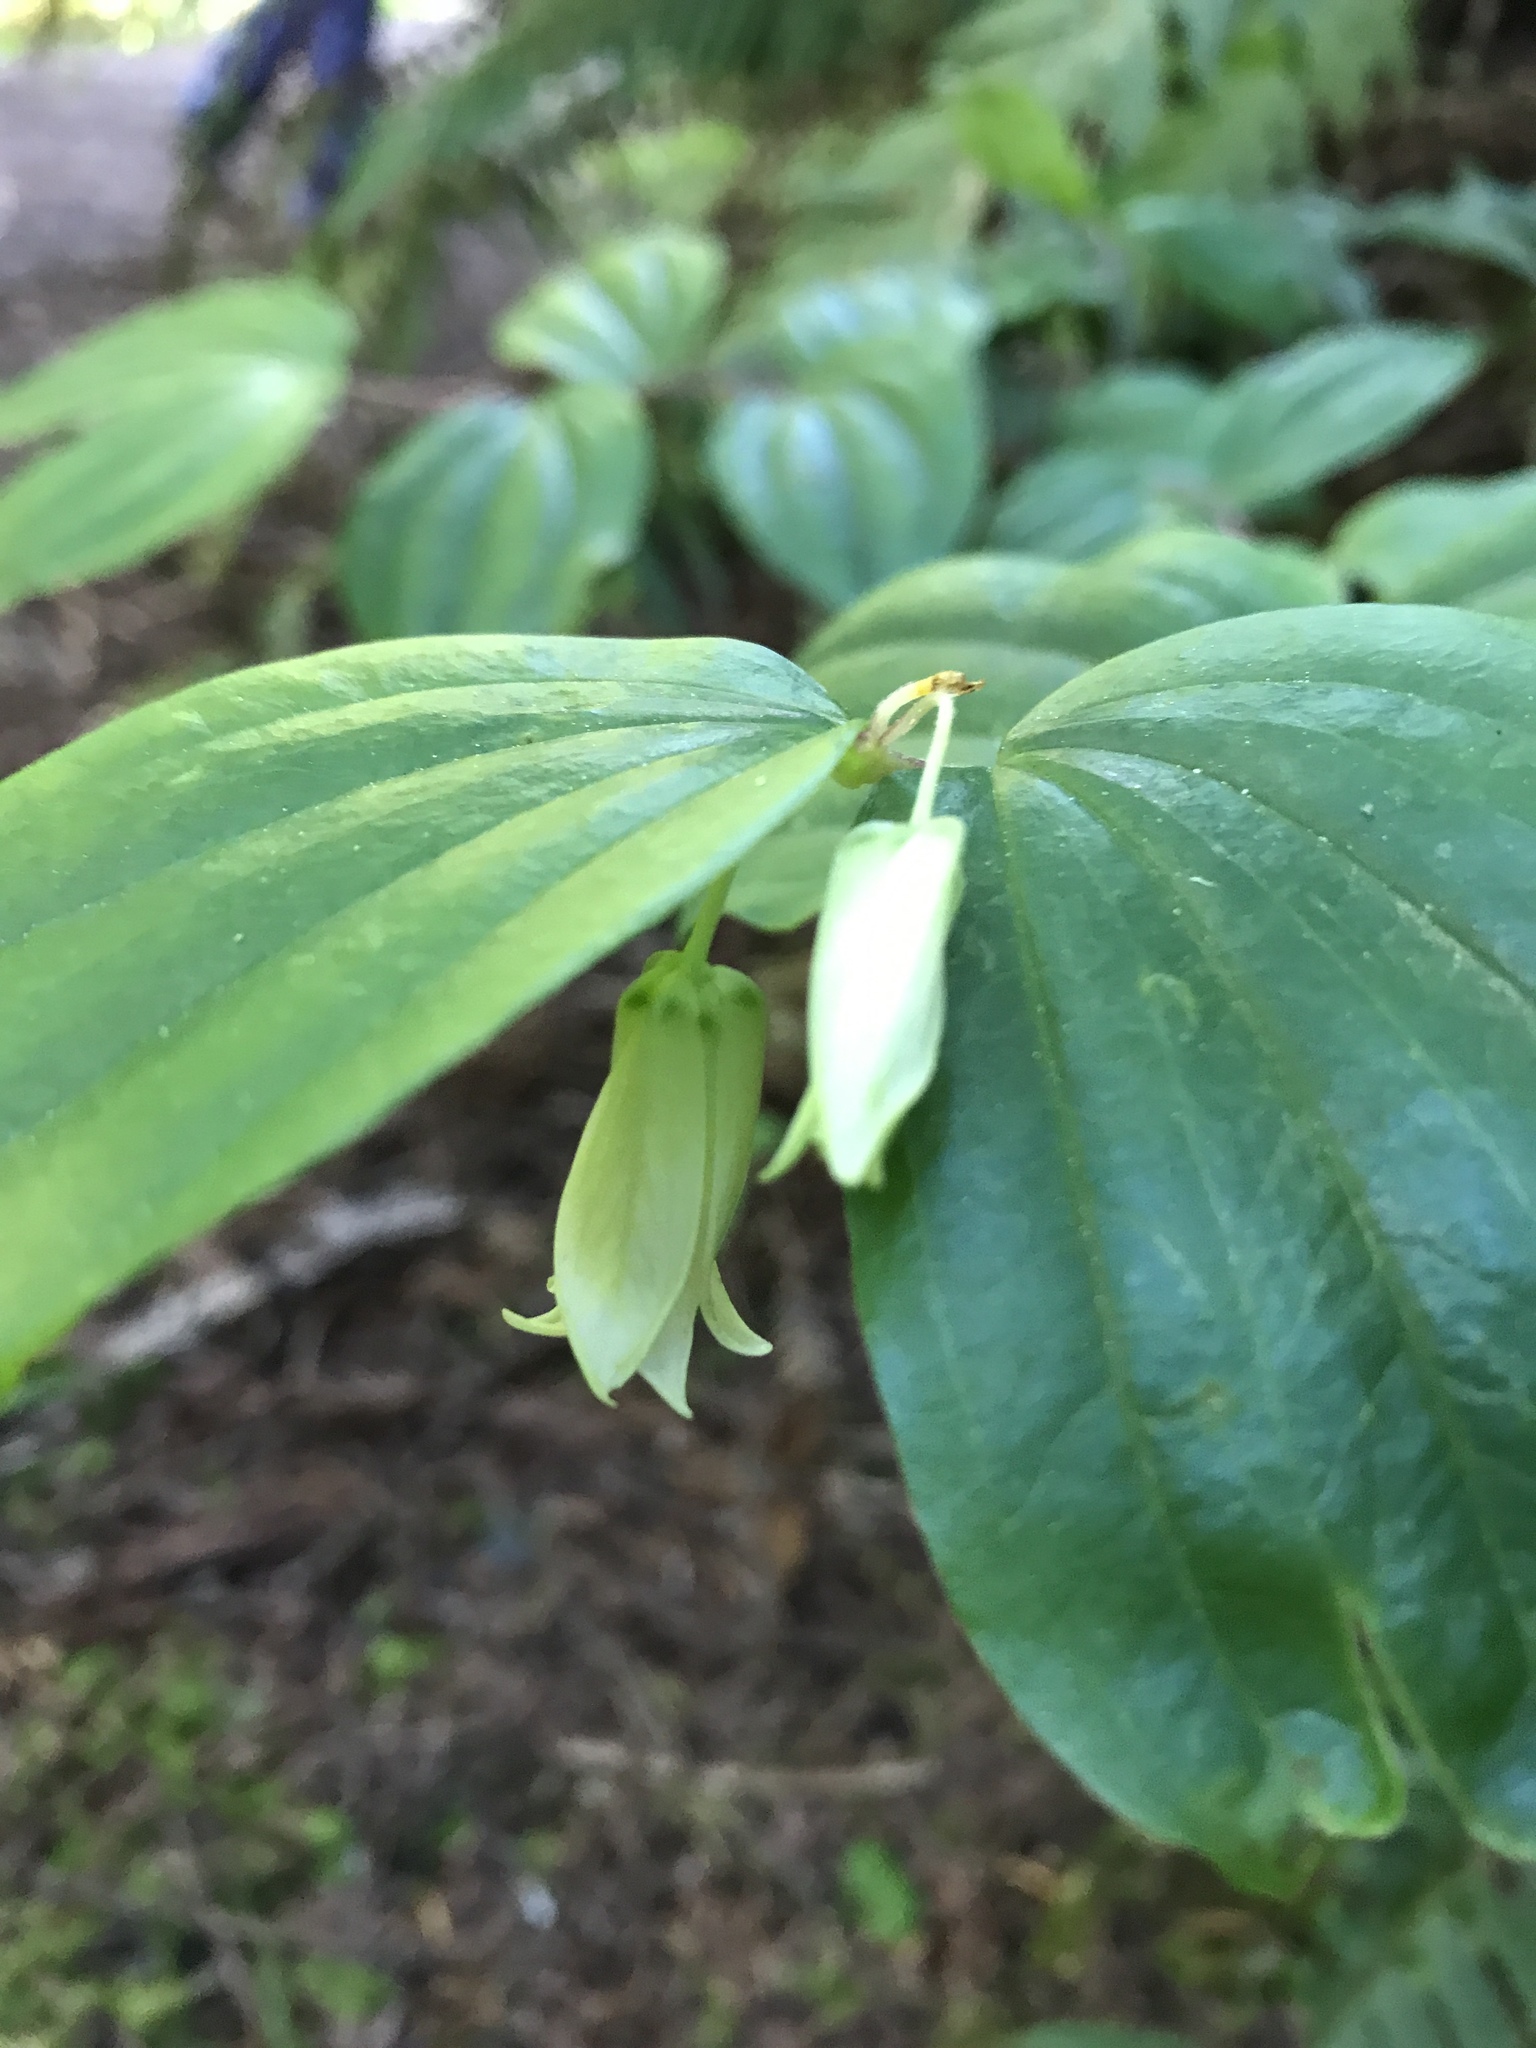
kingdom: Plantae
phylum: Tracheophyta
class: Liliopsida
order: Liliales
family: Liliaceae
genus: Prosartes
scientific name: Prosartes smithii
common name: Fairy-lantern
